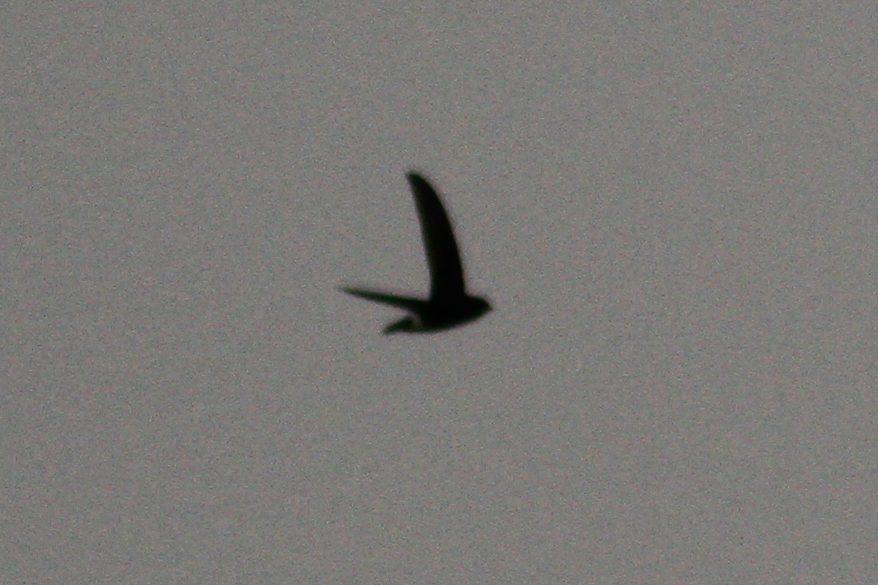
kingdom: Animalia
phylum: Chordata
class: Aves
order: Apodiformes
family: Apodidae
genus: Apus
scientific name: Apus nipalensis
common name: House swift
